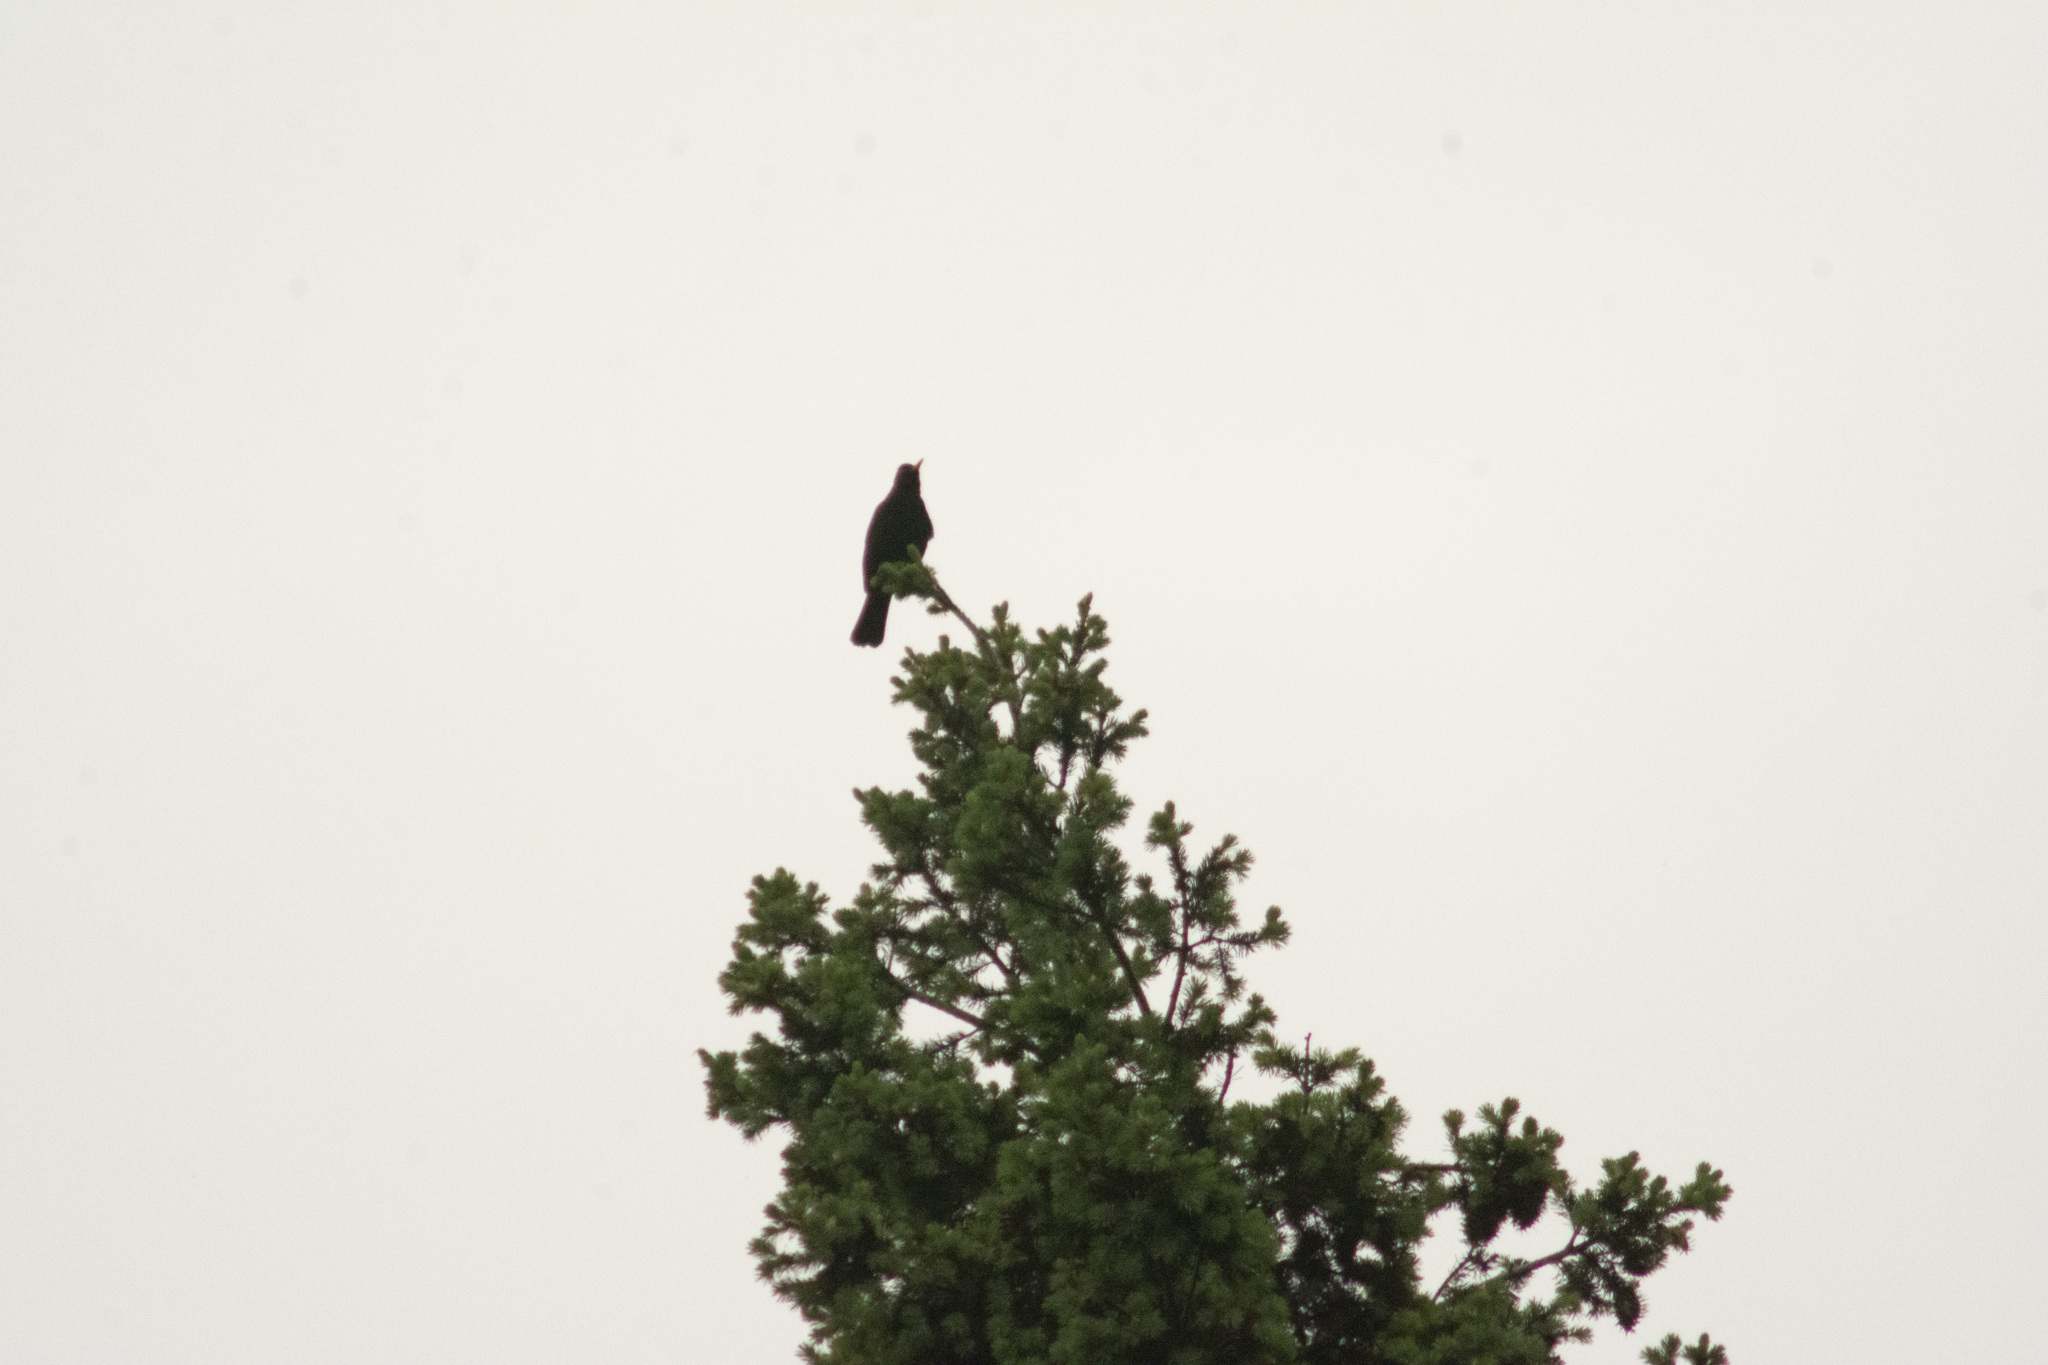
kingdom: Animalia
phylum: Chordata
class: Aves
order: Passeriformes
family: Turdidae
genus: Turdus
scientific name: Turdus merula
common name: Common blackbird
